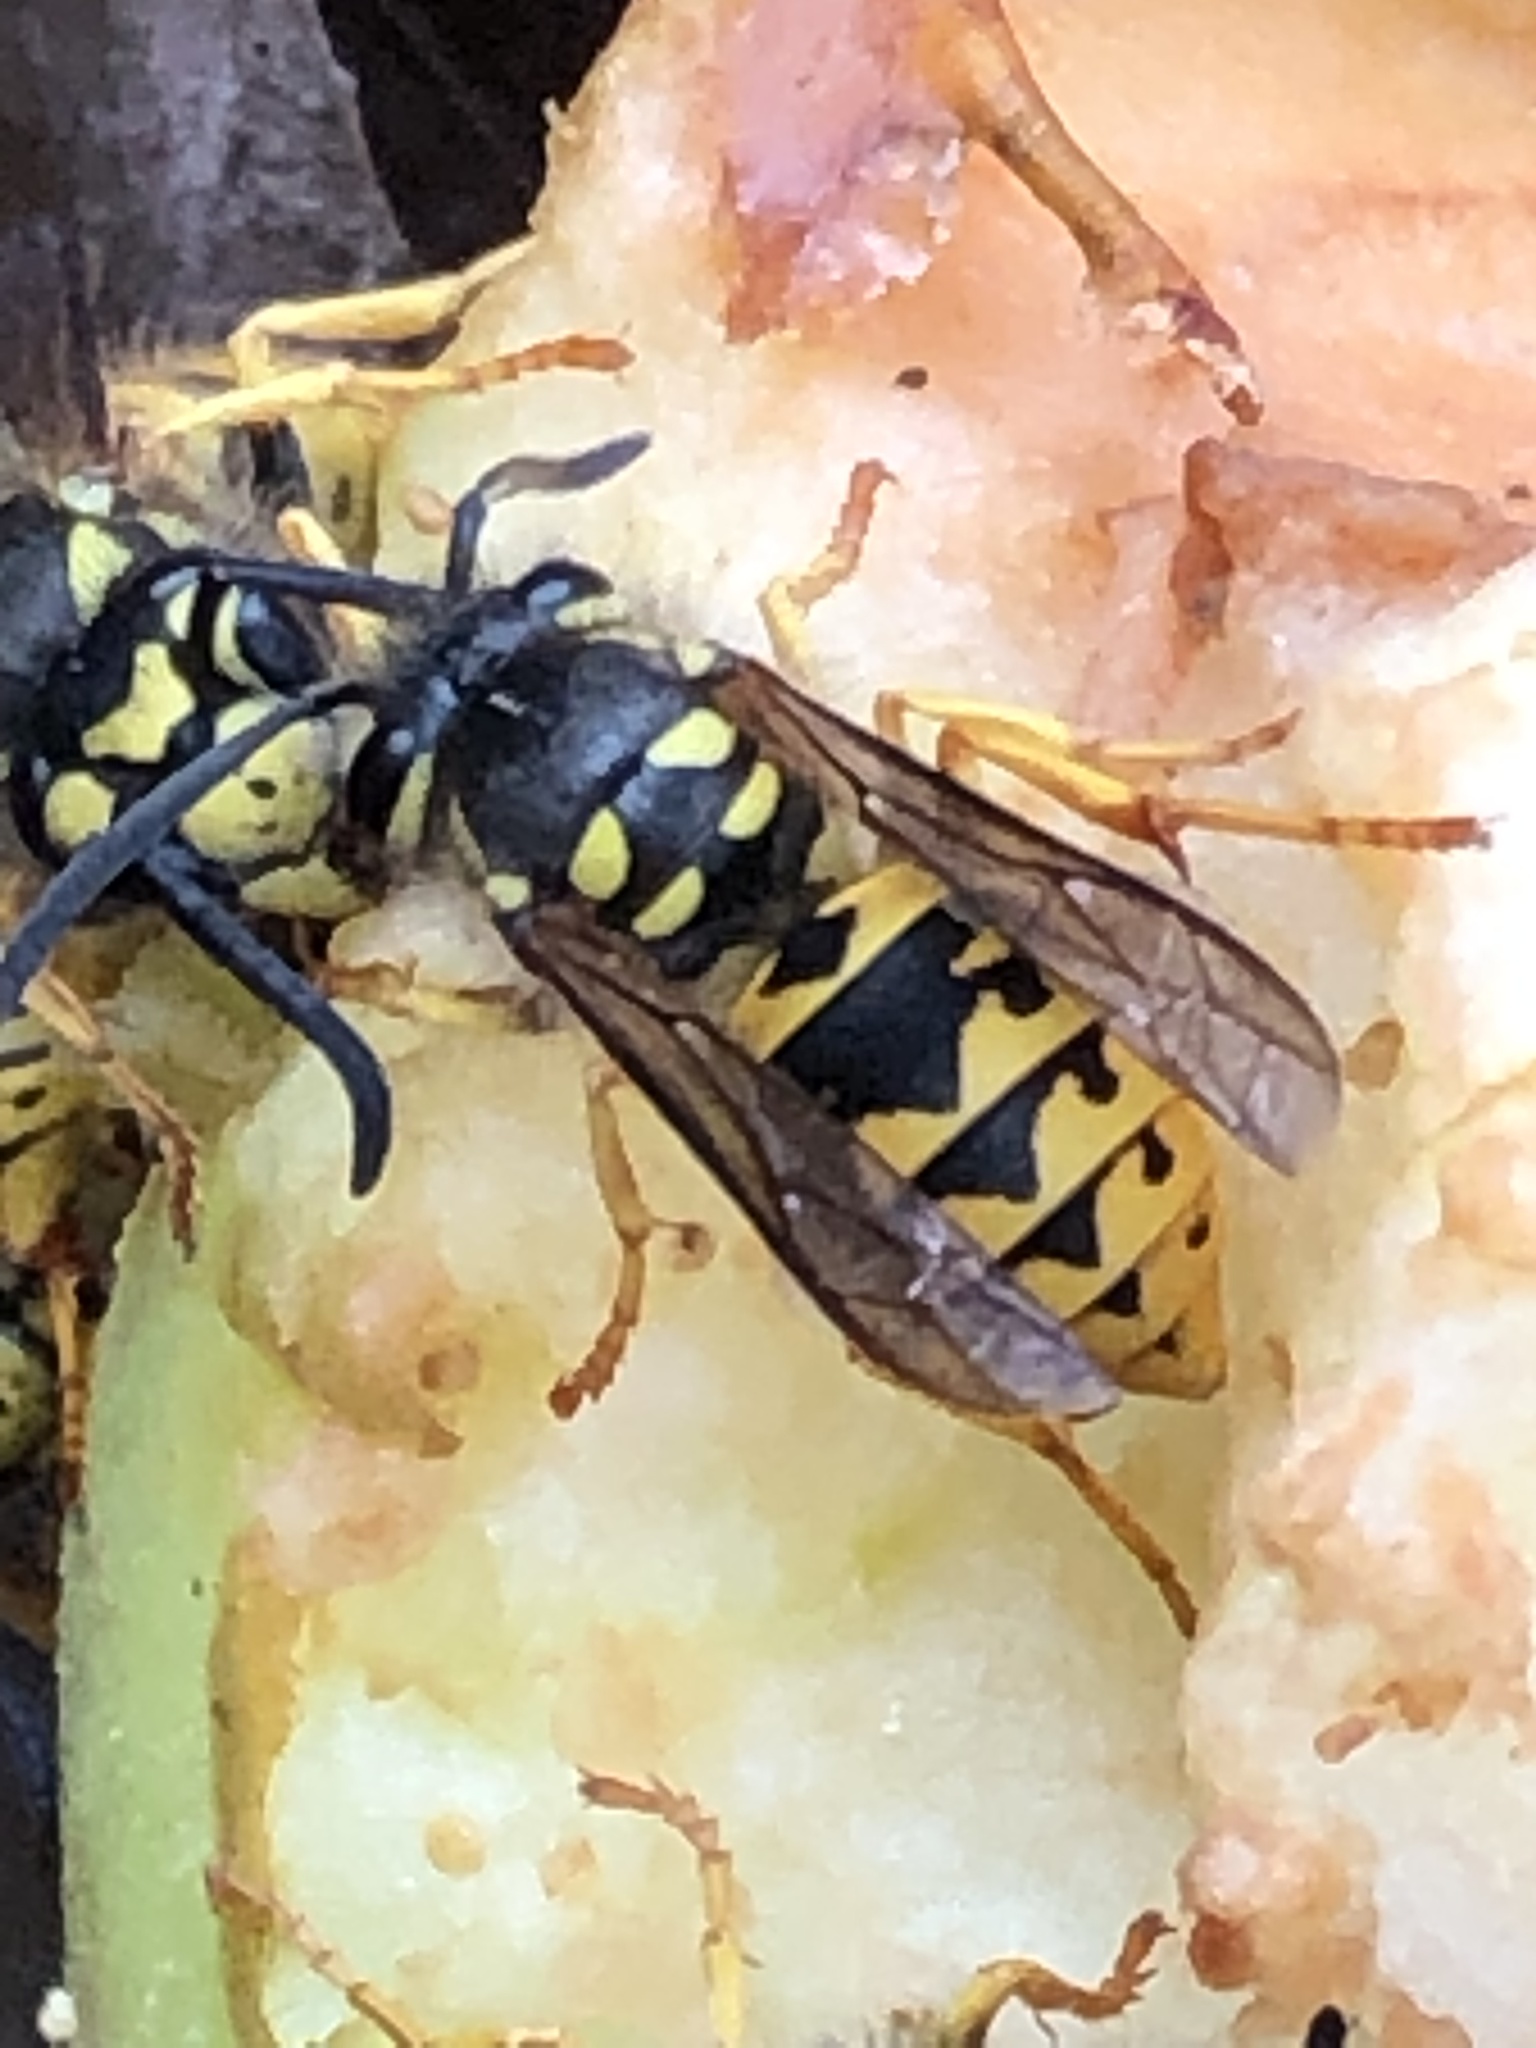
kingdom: Animalia
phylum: Arthropoda
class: Insecta
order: Hymenoptera
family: Vespidae
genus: Vespula
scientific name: Vespula germanica
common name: German wasp
